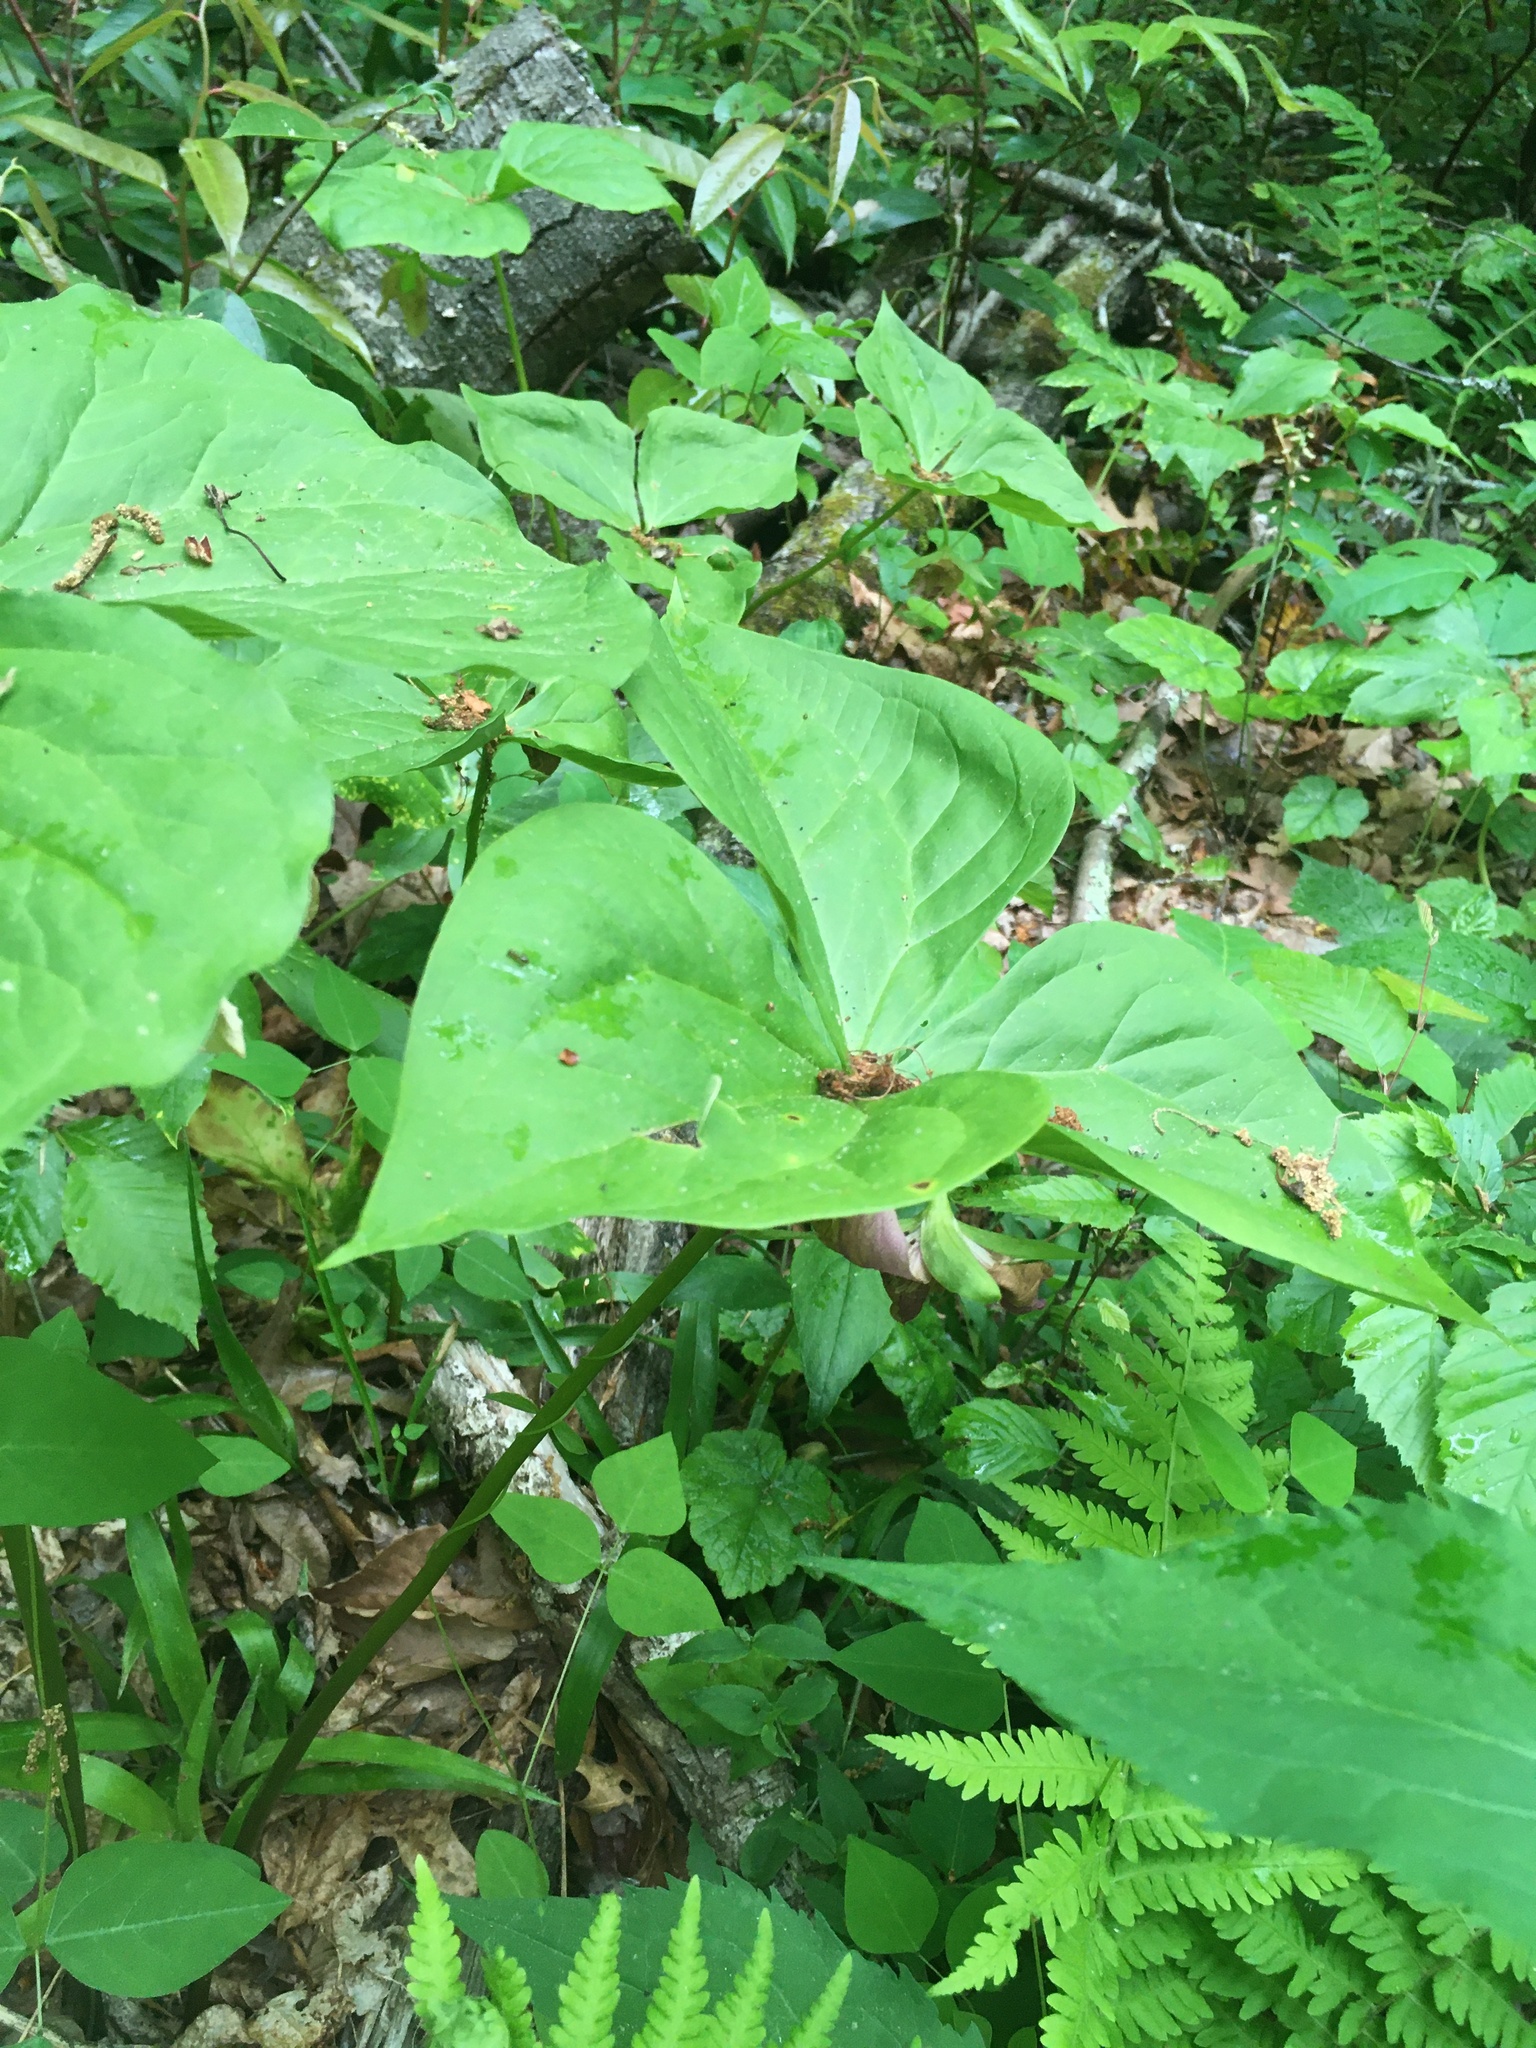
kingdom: Plantae
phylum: Tracheophyta
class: Liliopsida
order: Liliales
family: Melanthiaceae
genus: Trillium
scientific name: Trillium vaseyi
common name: Sweet trillium
